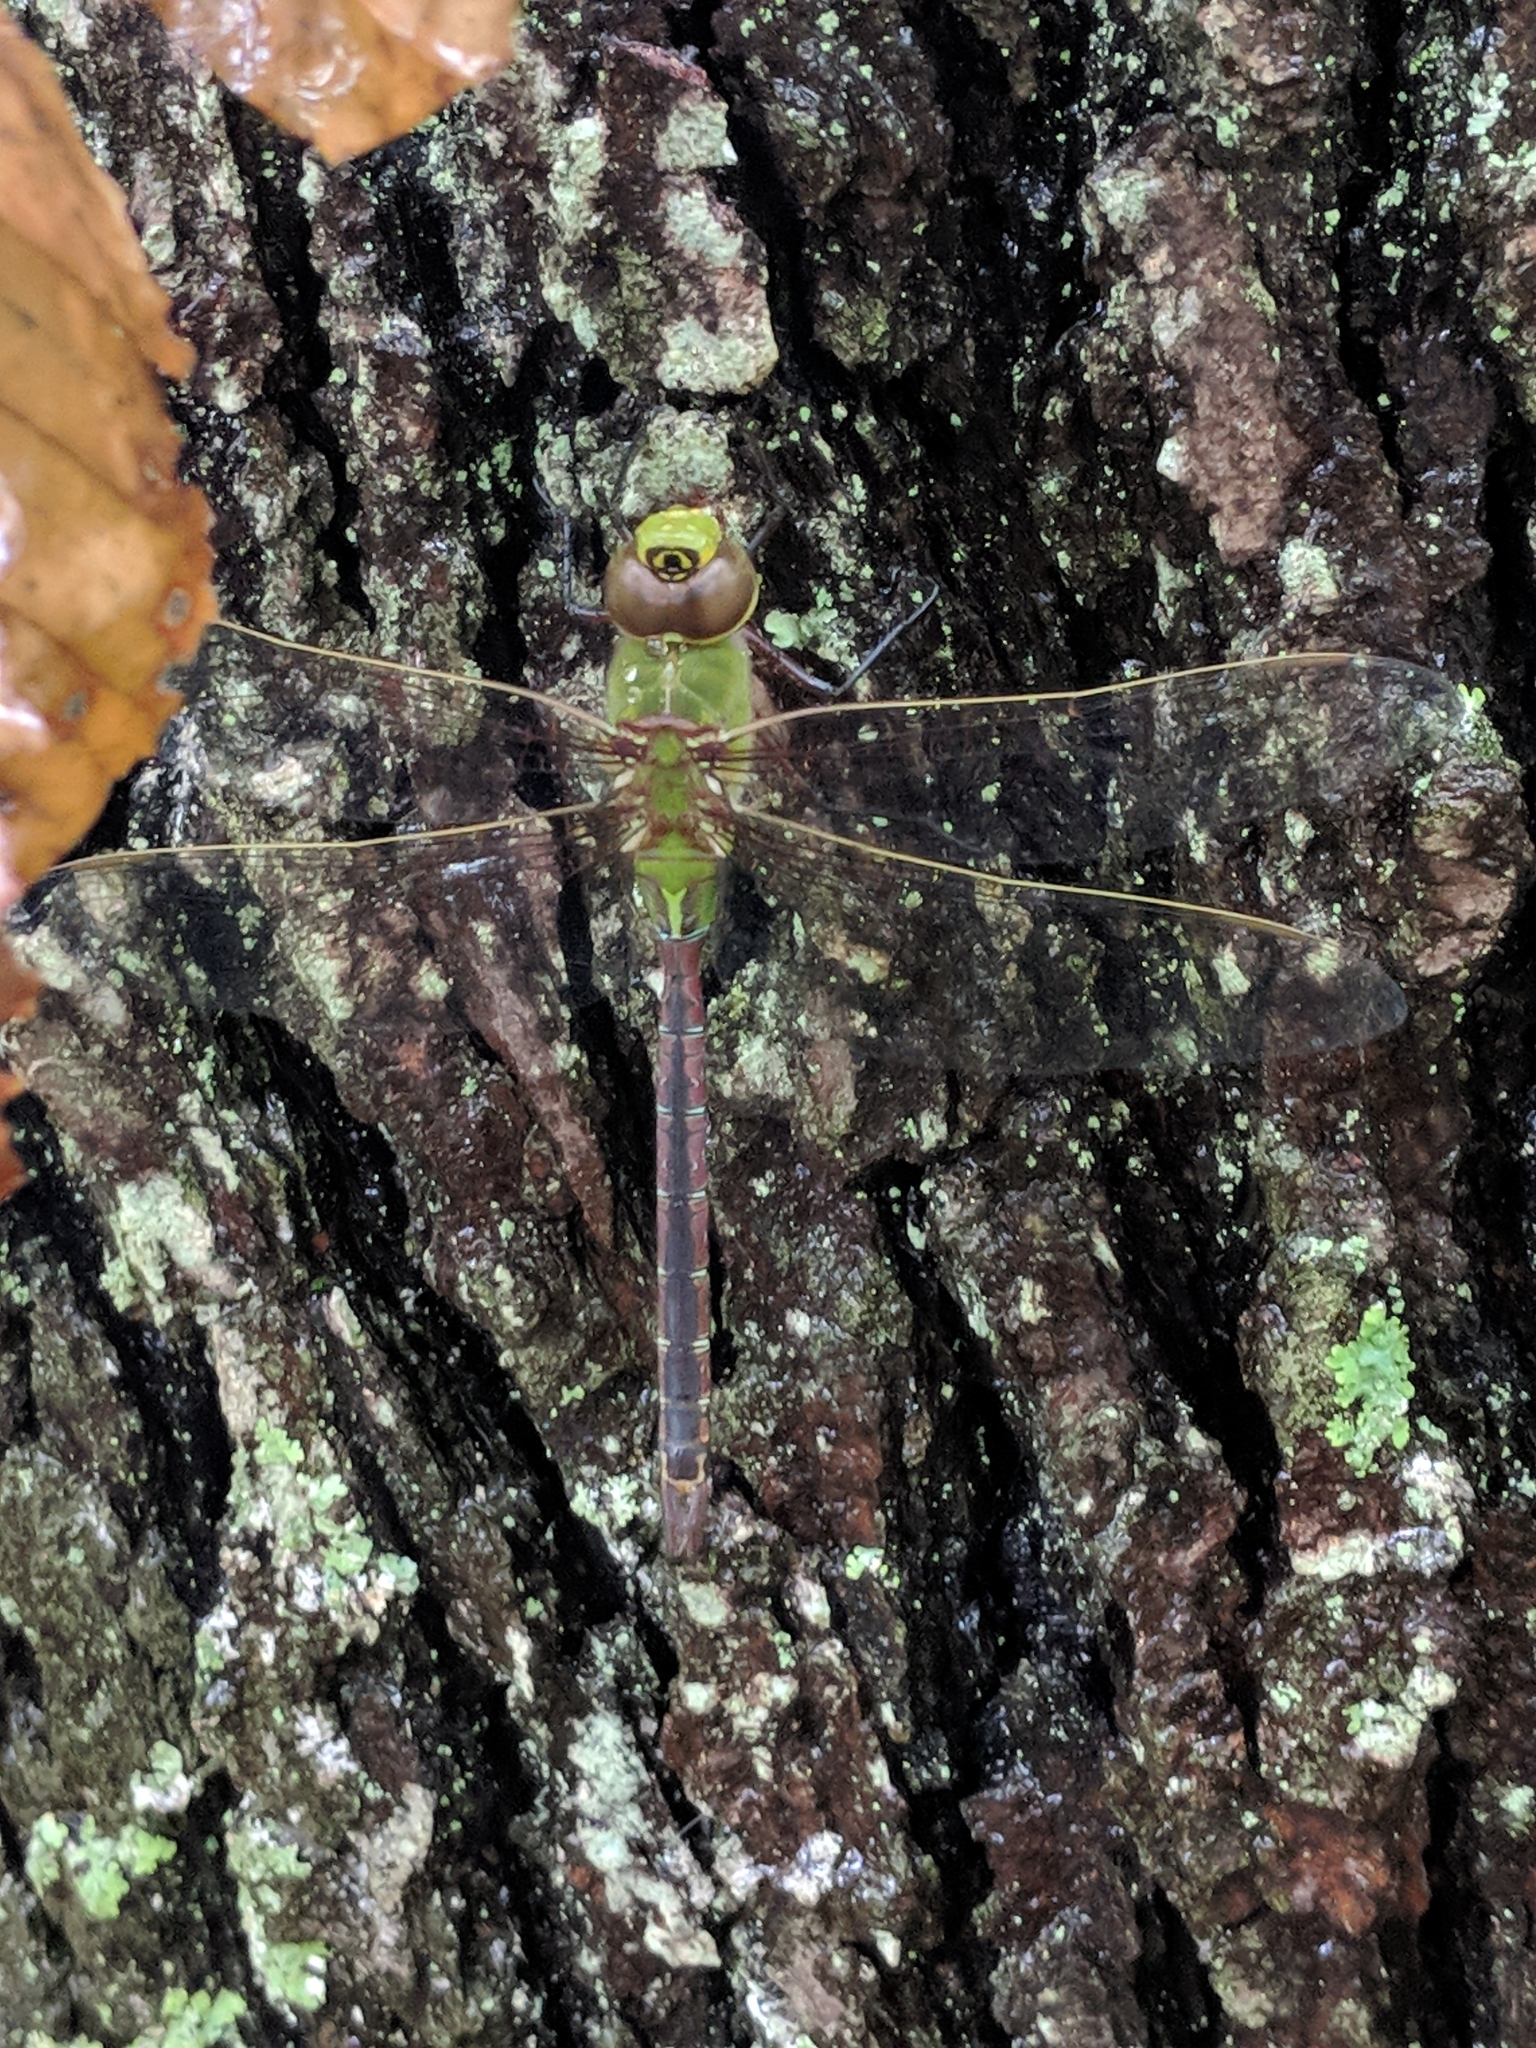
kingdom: Animalia
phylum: Arthropoda
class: Insecta
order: Odonata
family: Aeshnidae
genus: Anax
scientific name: Anax junius
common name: Common green darner
